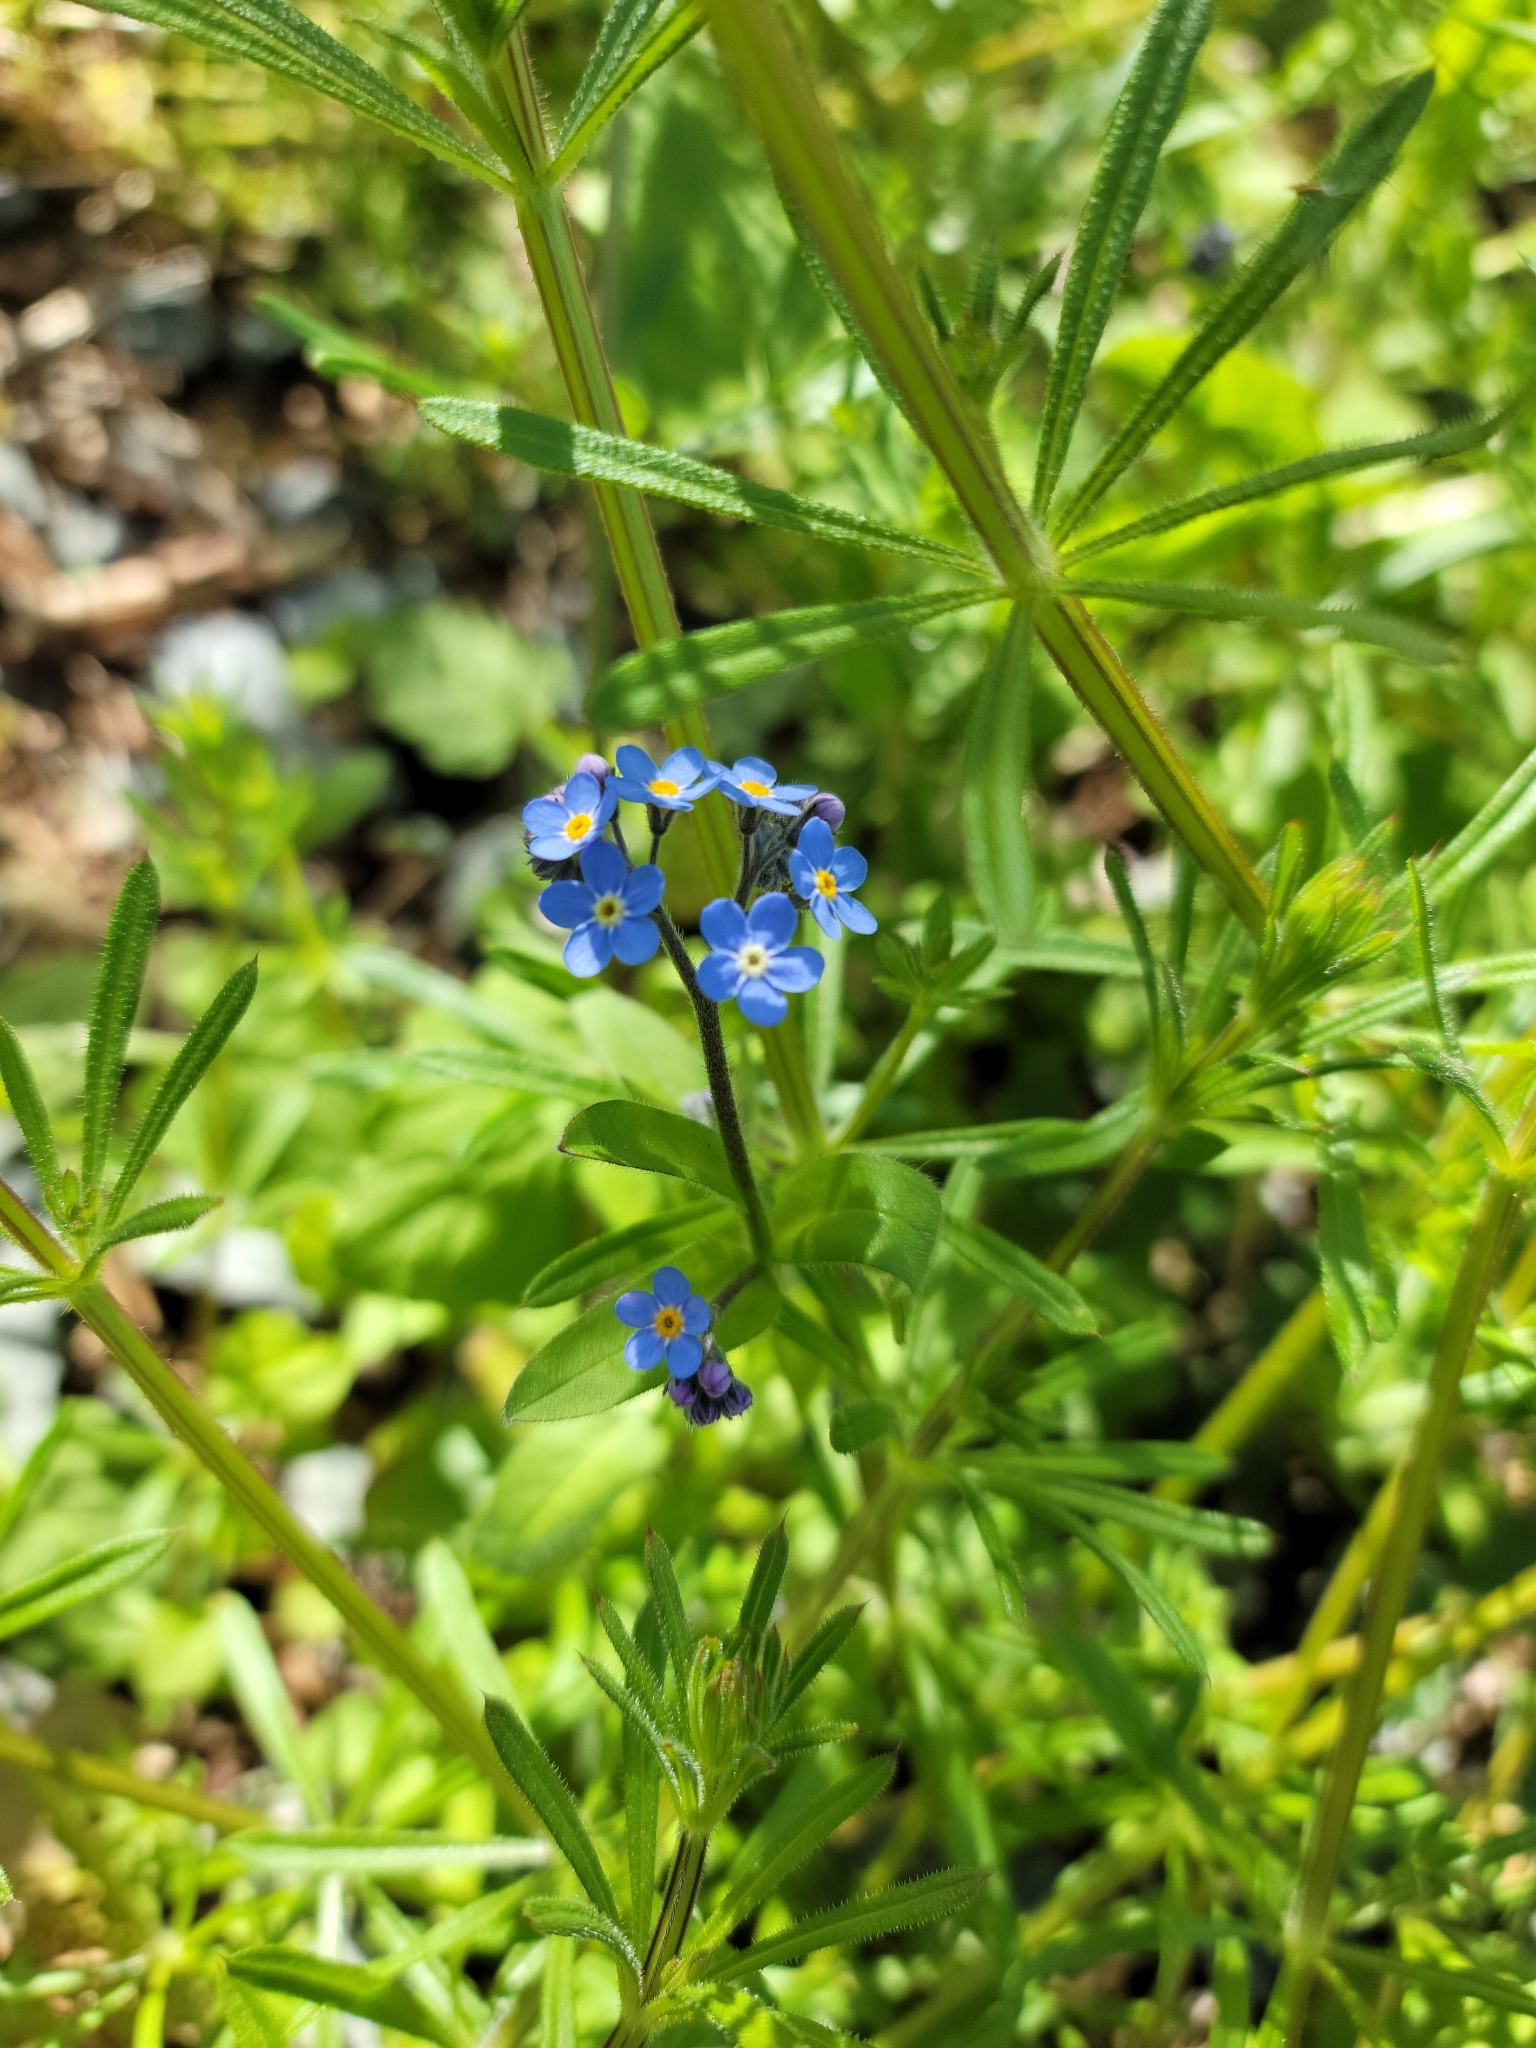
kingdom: Plantae
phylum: Tracheophyta
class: Magnoliopsida
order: Boraginales
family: Boraginaceae
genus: Myosotis
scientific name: Myosotis sylvatica
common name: Wood forget-me-not
